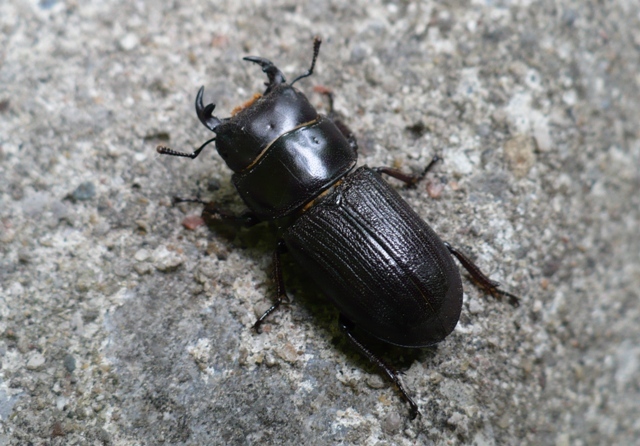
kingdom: Animalia
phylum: Arthropoda
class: Insecta
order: Coleoptera
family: Lucanidae
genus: Dorcus
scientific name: Dorcus parallelus
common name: Antelope beetle
